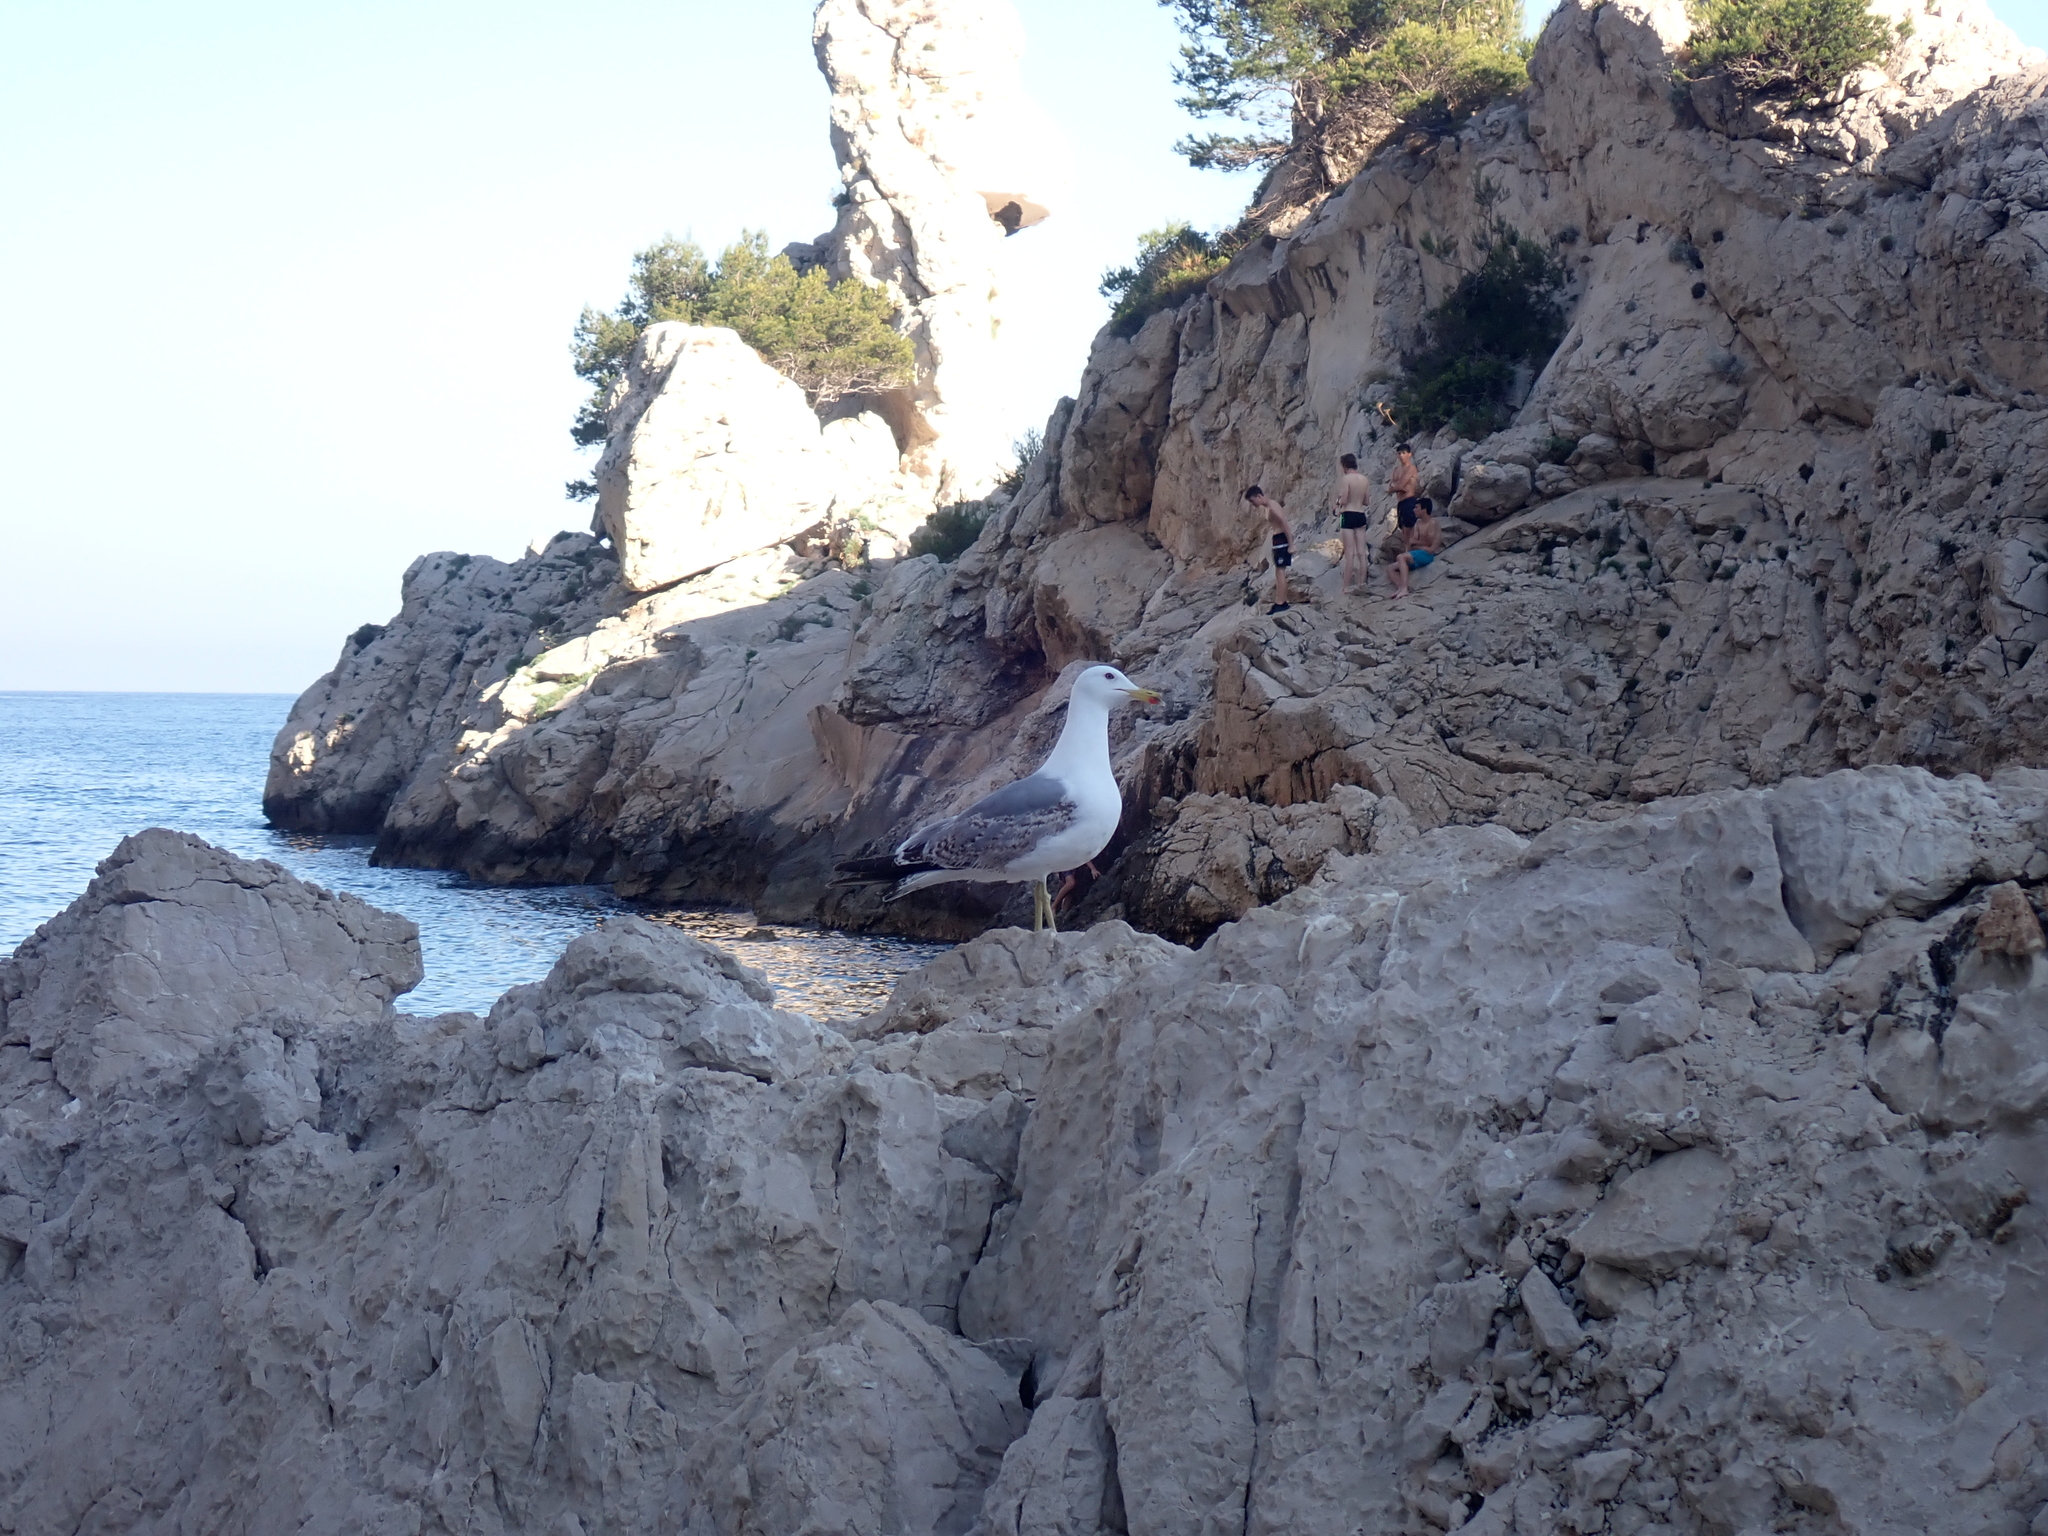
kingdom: Animalia
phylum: Chordata
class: Aves
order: Charadriiformes
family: Laridae
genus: Larus
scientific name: Larus michahellis
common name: Yellow-legged gull
